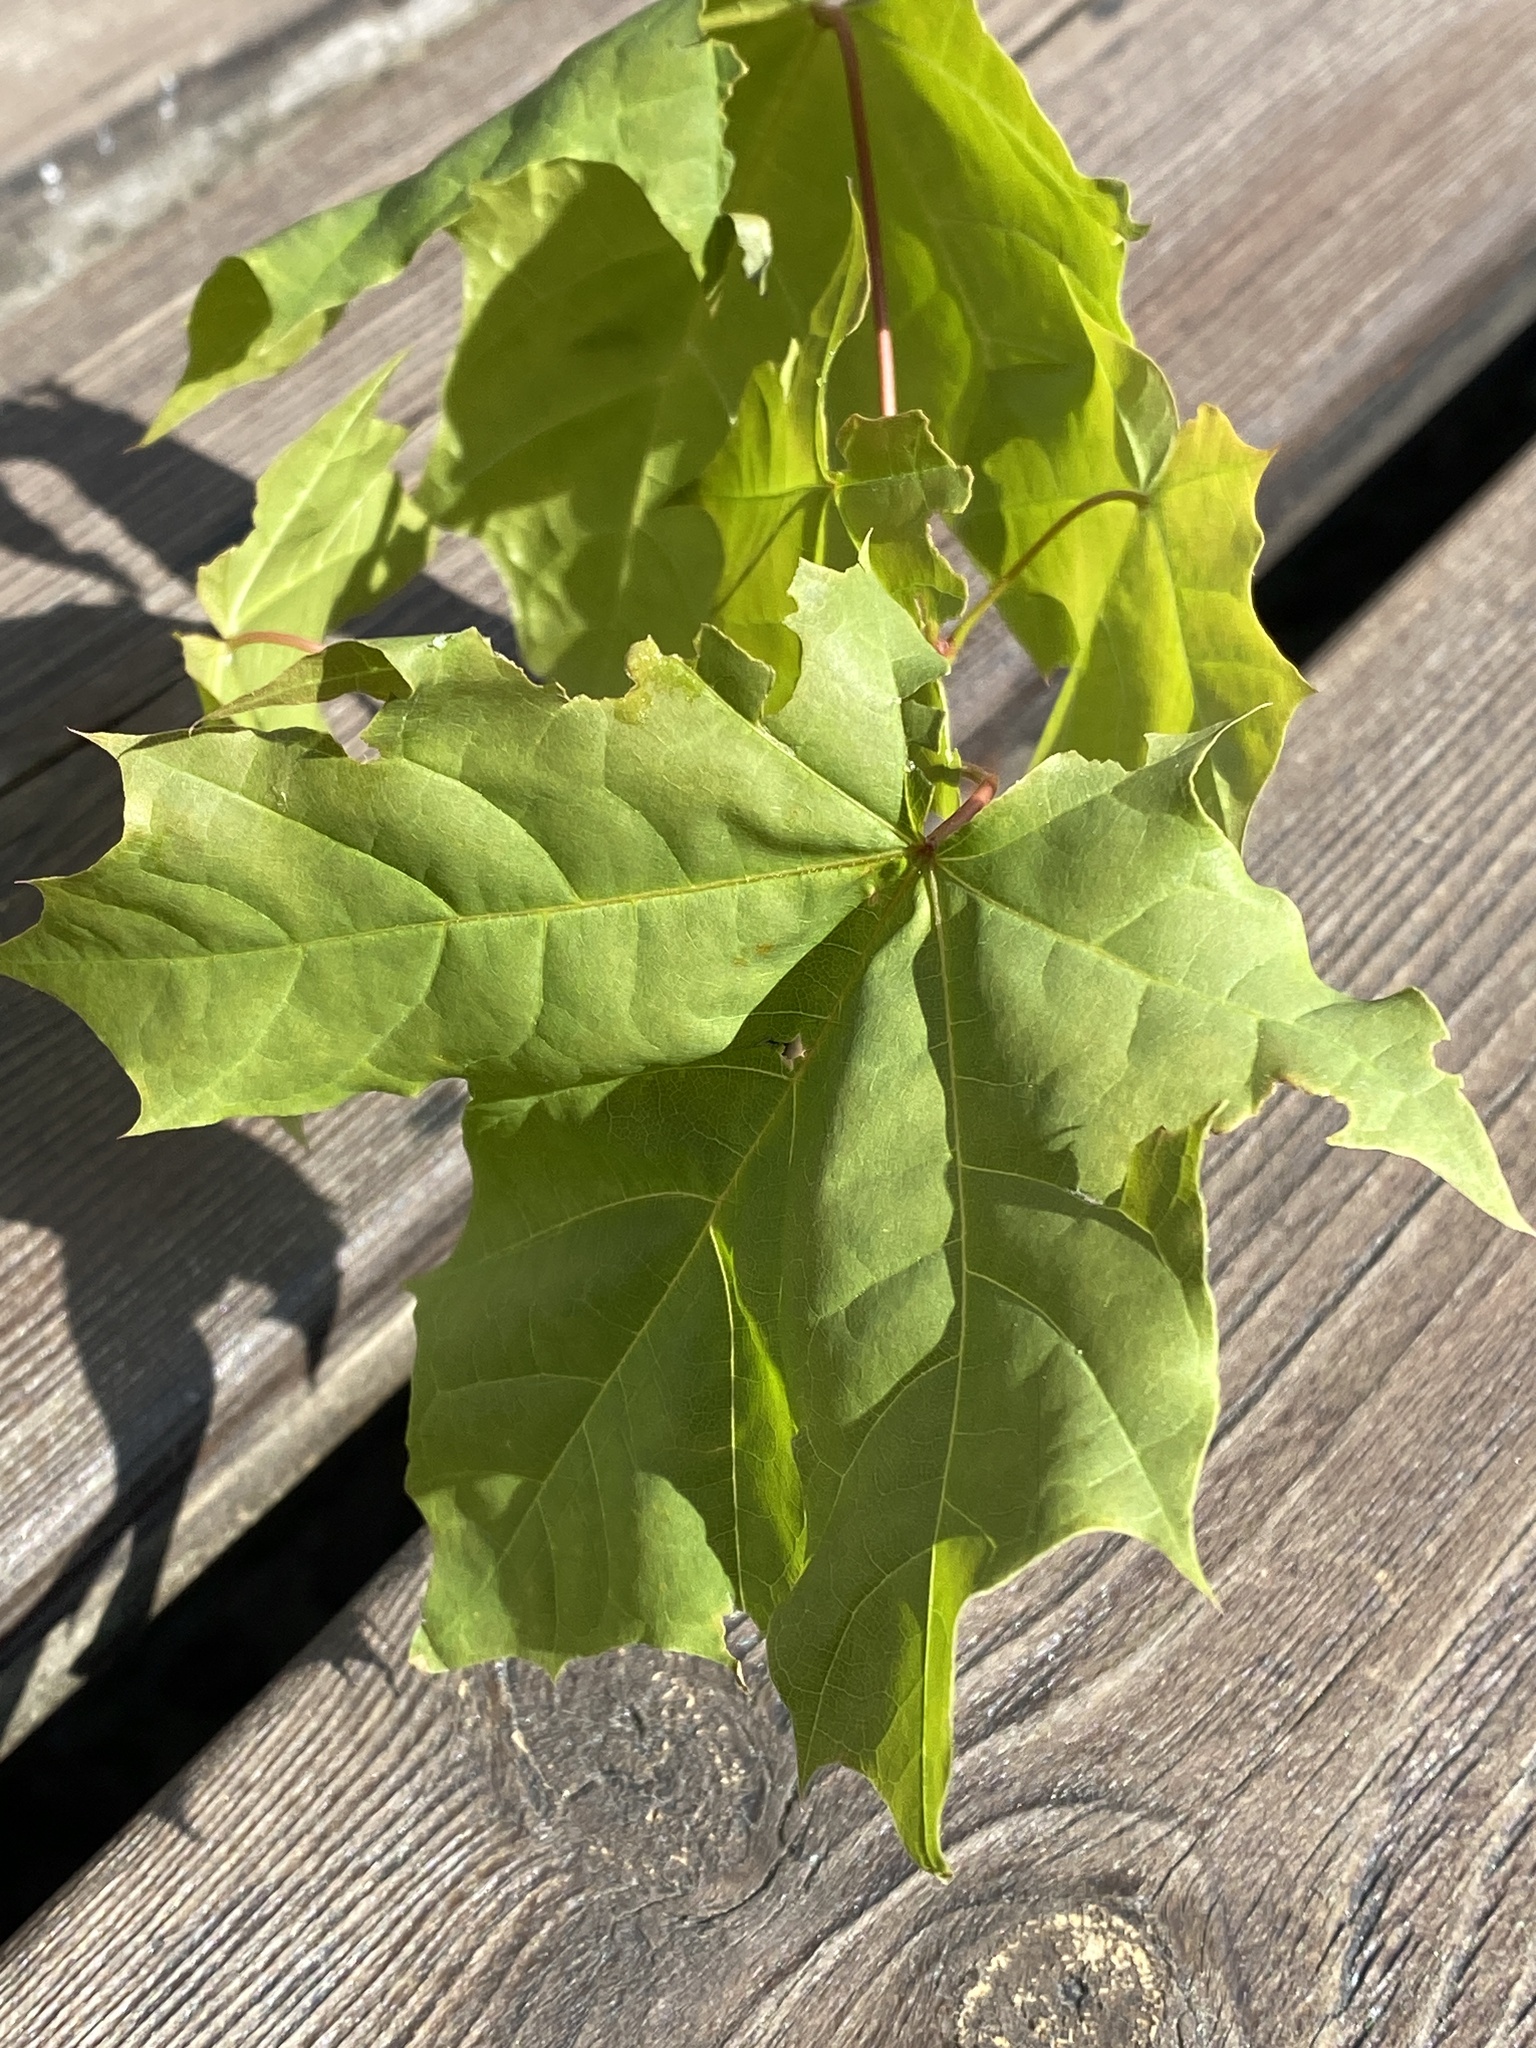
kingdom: Plantae
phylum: Tracheophyta
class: Magnoliopsida
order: Sapindales
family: Sapindaceae
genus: Acer
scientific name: Acer platanoides
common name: Norway maple
